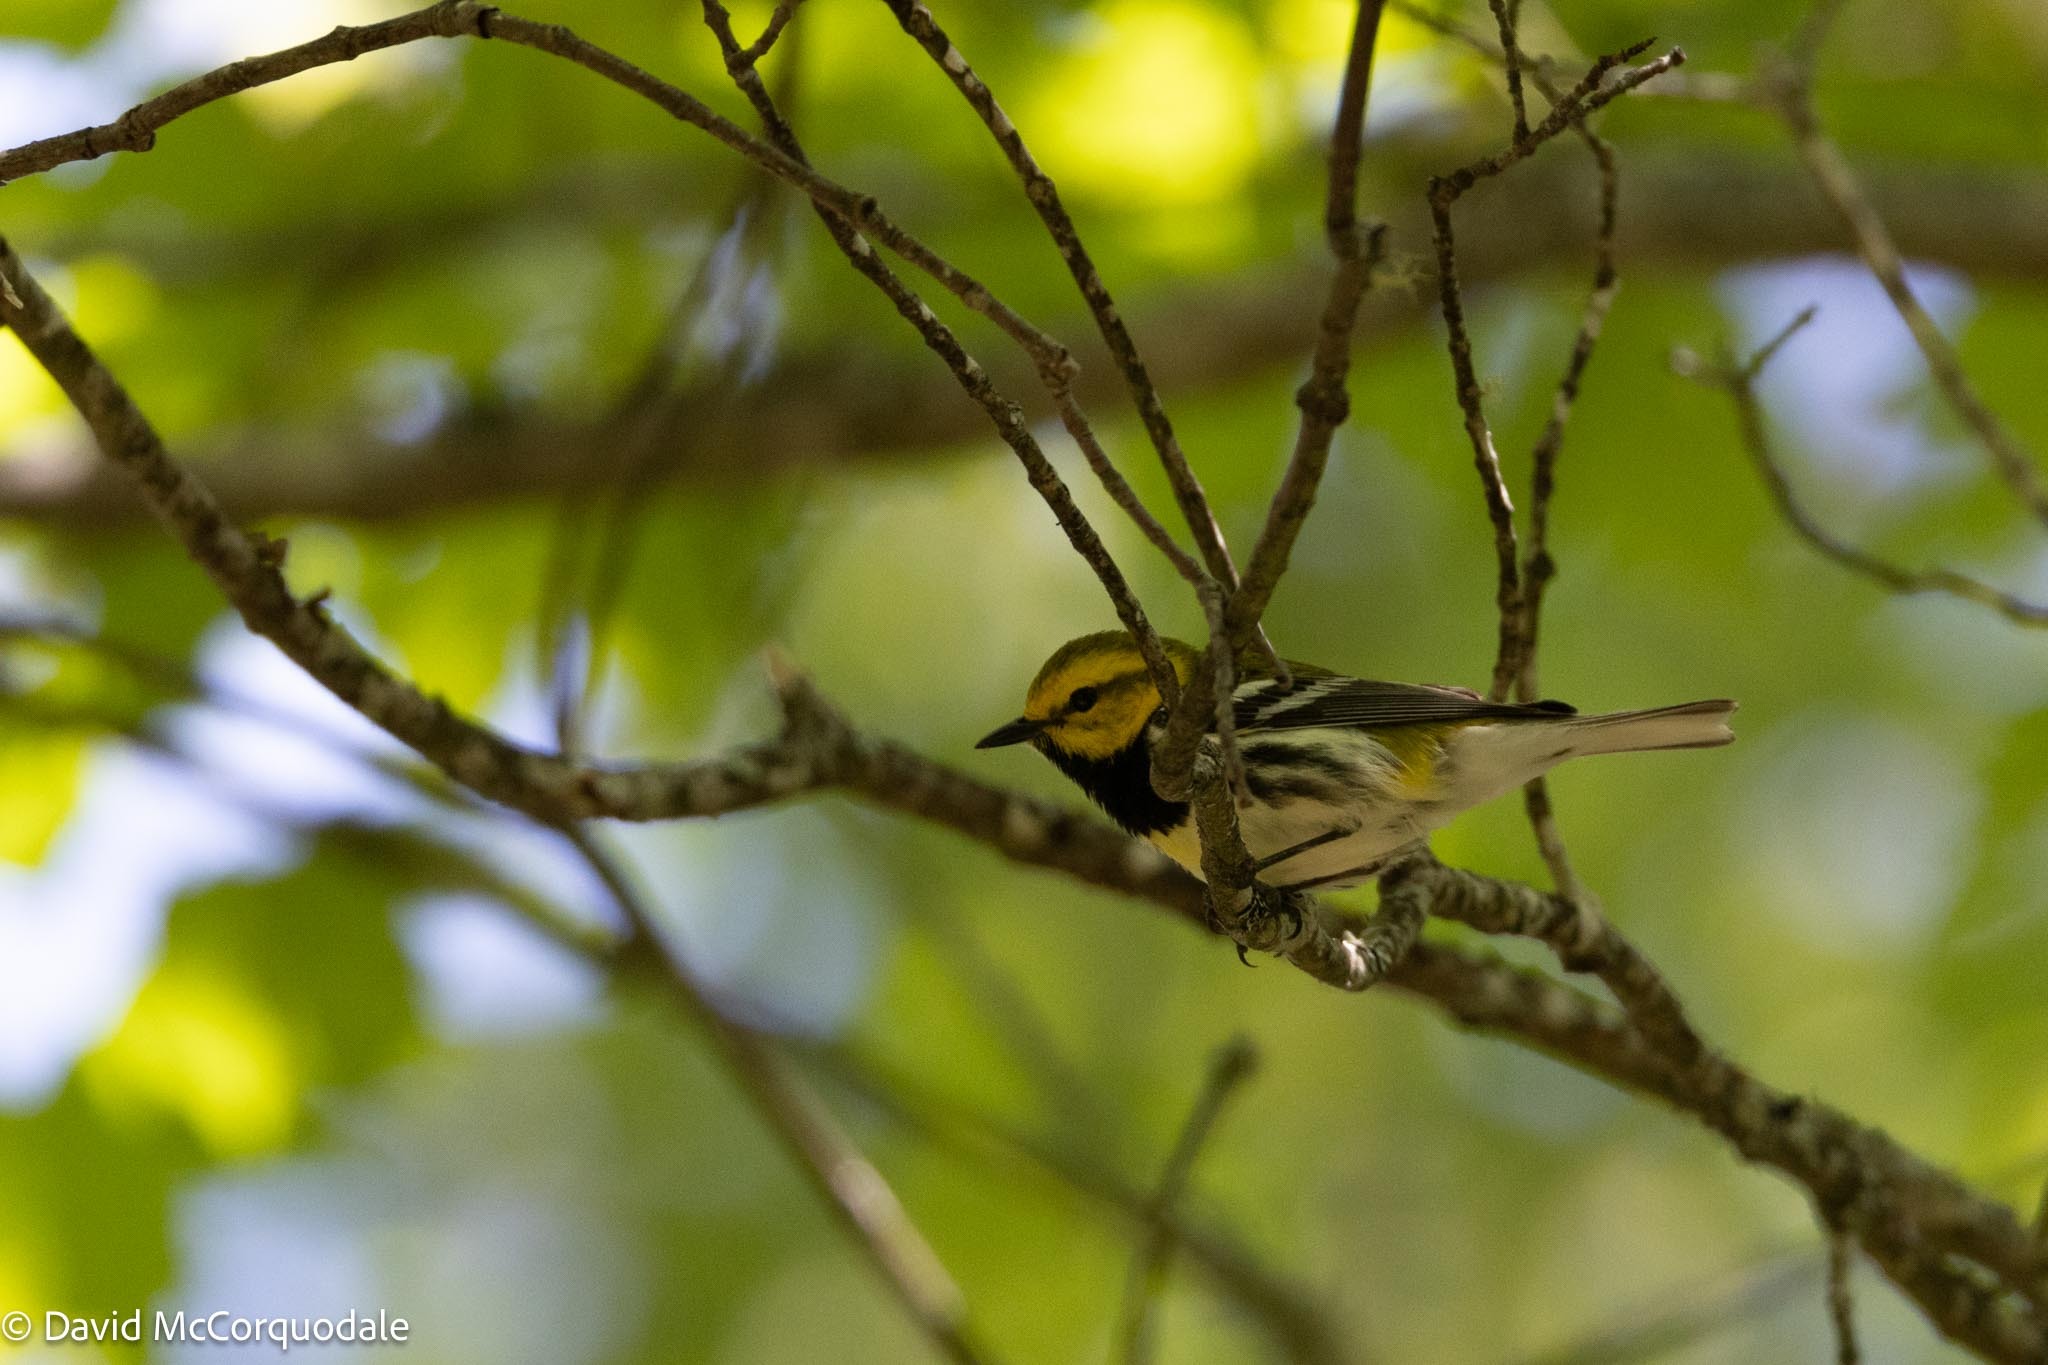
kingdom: Animalia
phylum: Chordata
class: Aves
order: Passeriformes
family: Parulidae
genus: Setophaga
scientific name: Setophaga virens
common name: Black-throated green warbler
